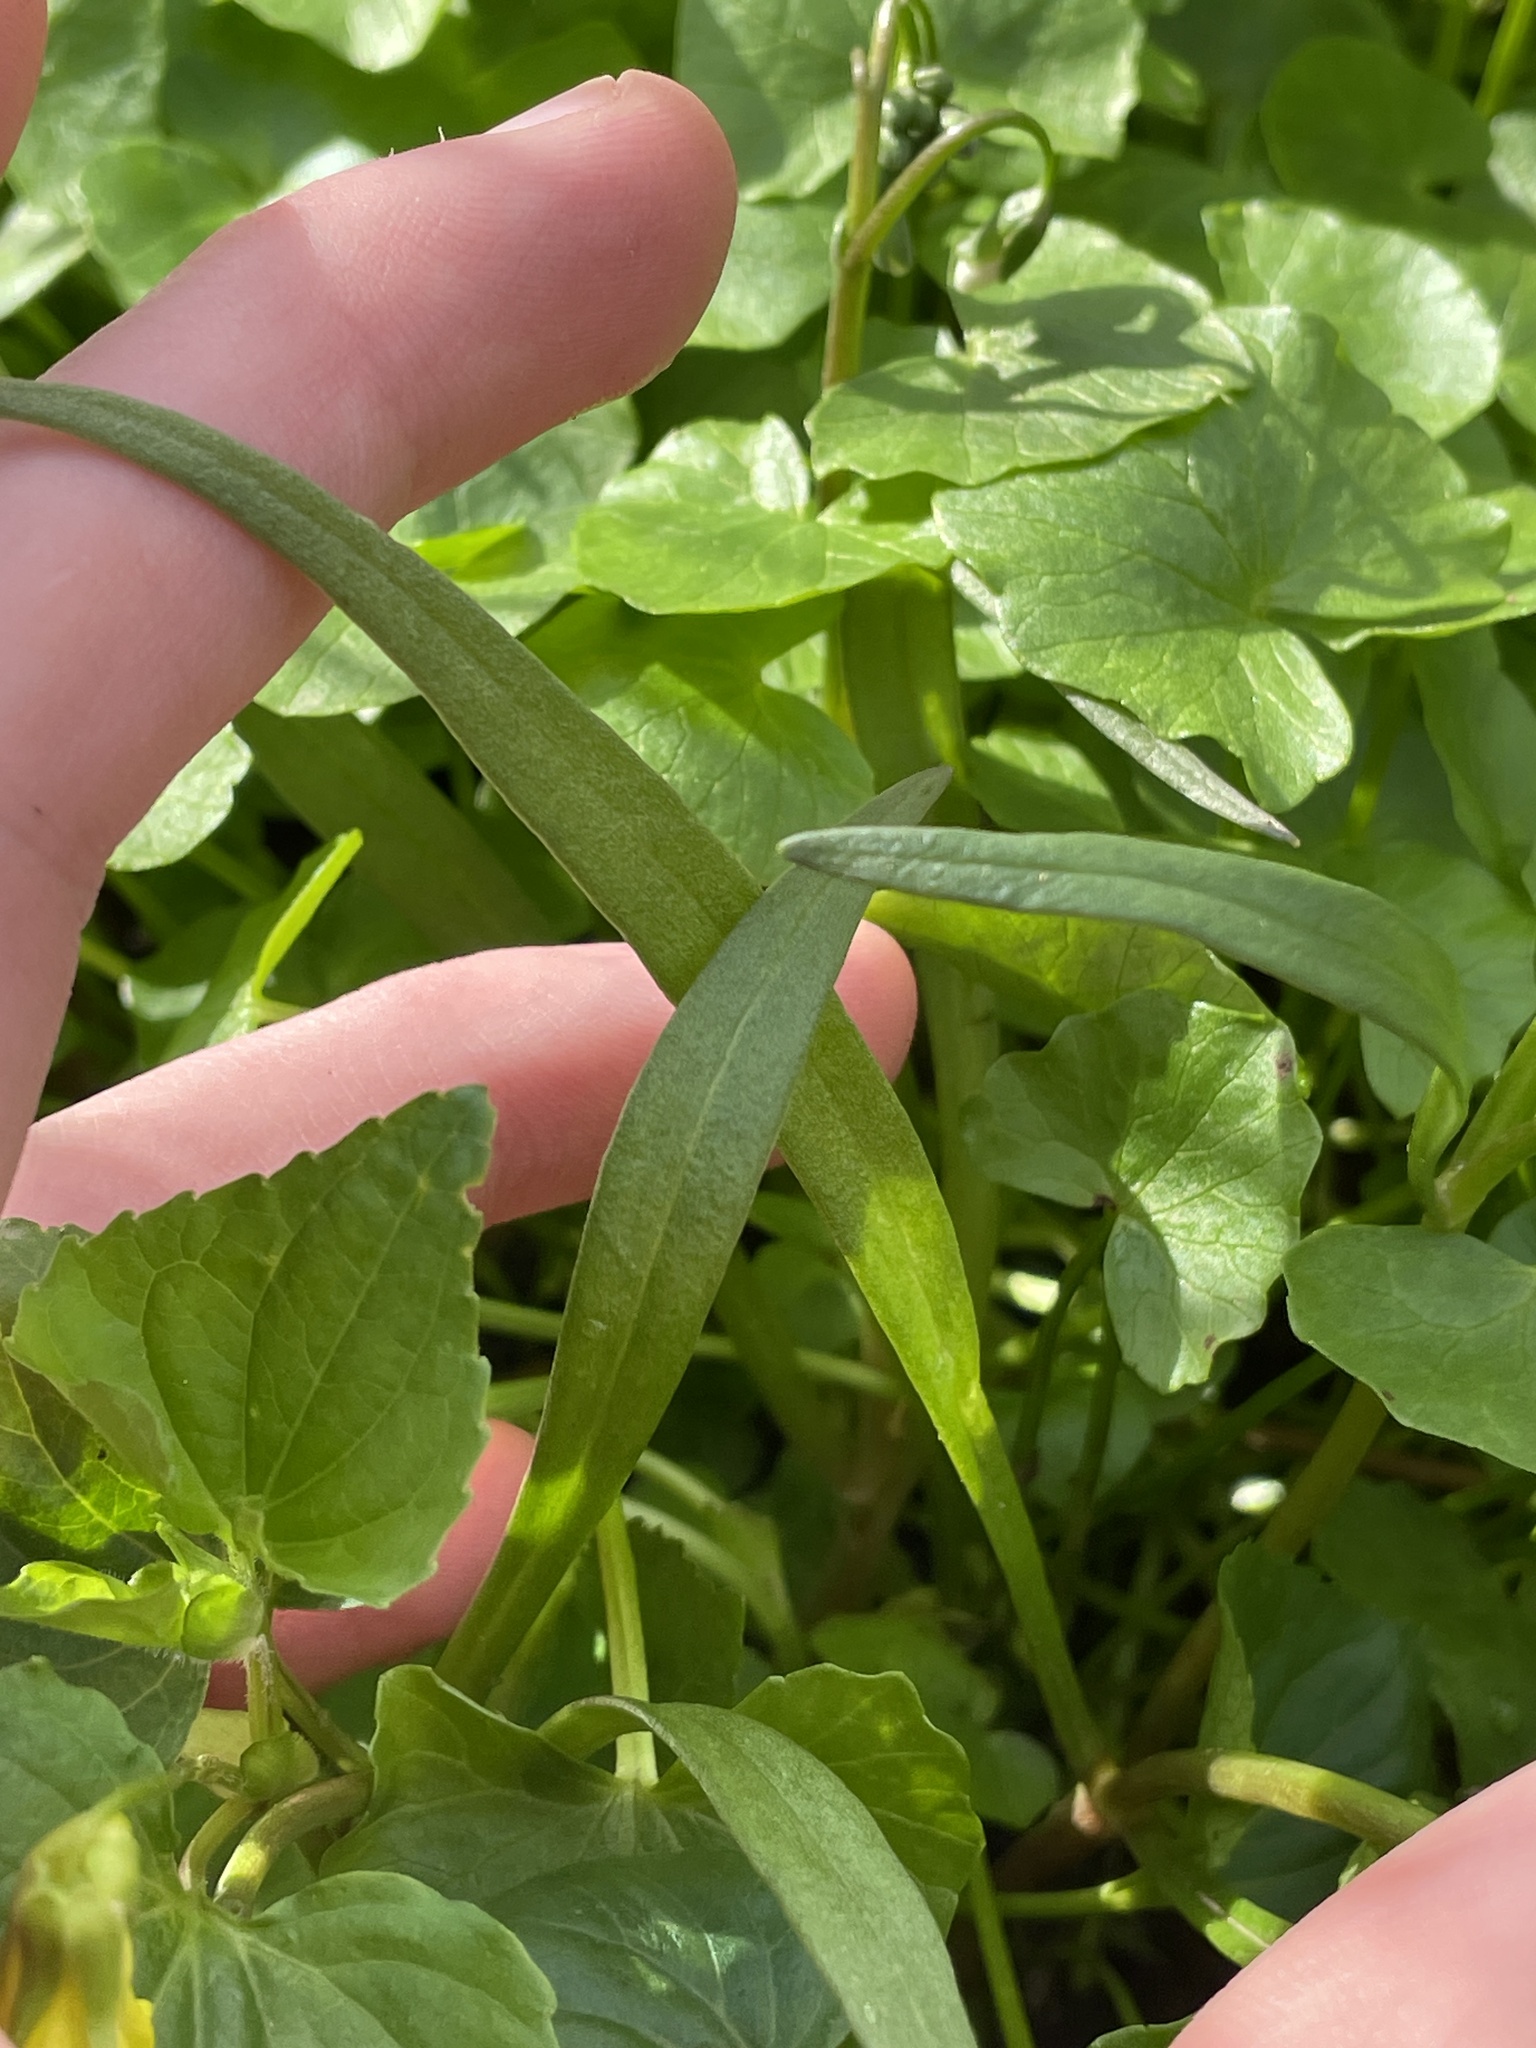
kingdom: Plantae
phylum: Tracheophyta
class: Magnoliopsida
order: Caryophyllales
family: Montiaceae
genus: Claytonia
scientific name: Claytonia virginica
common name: Virginia springbeauty
